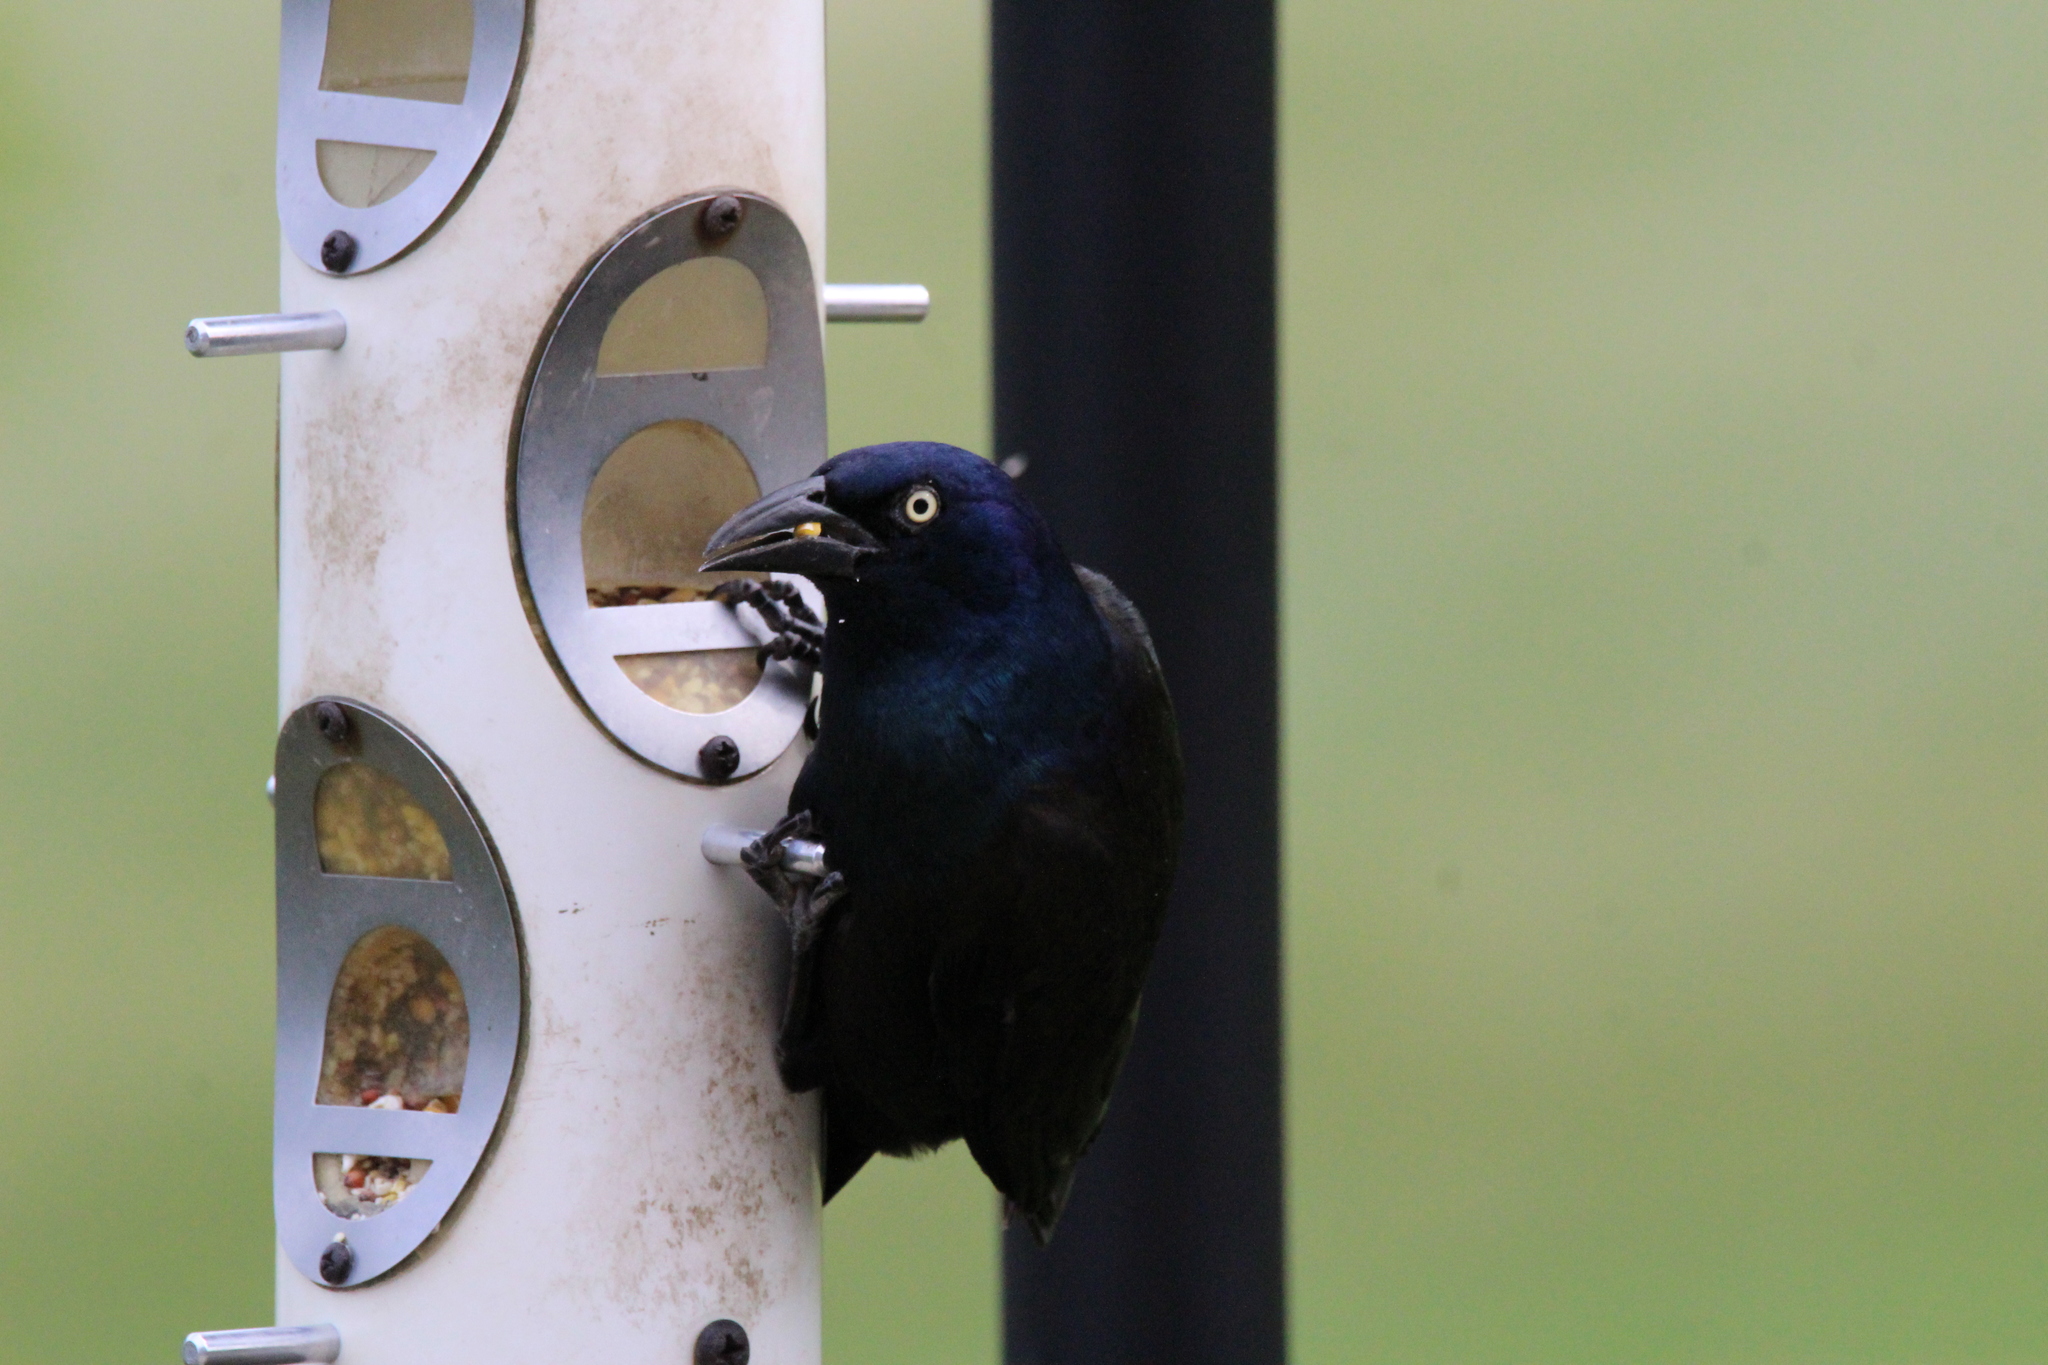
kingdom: Animalia
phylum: Chordata
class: Aves
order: Passeriformes
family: Icteridae
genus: Quiscalus
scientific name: Quiscalus quiscula
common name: Common grackle
